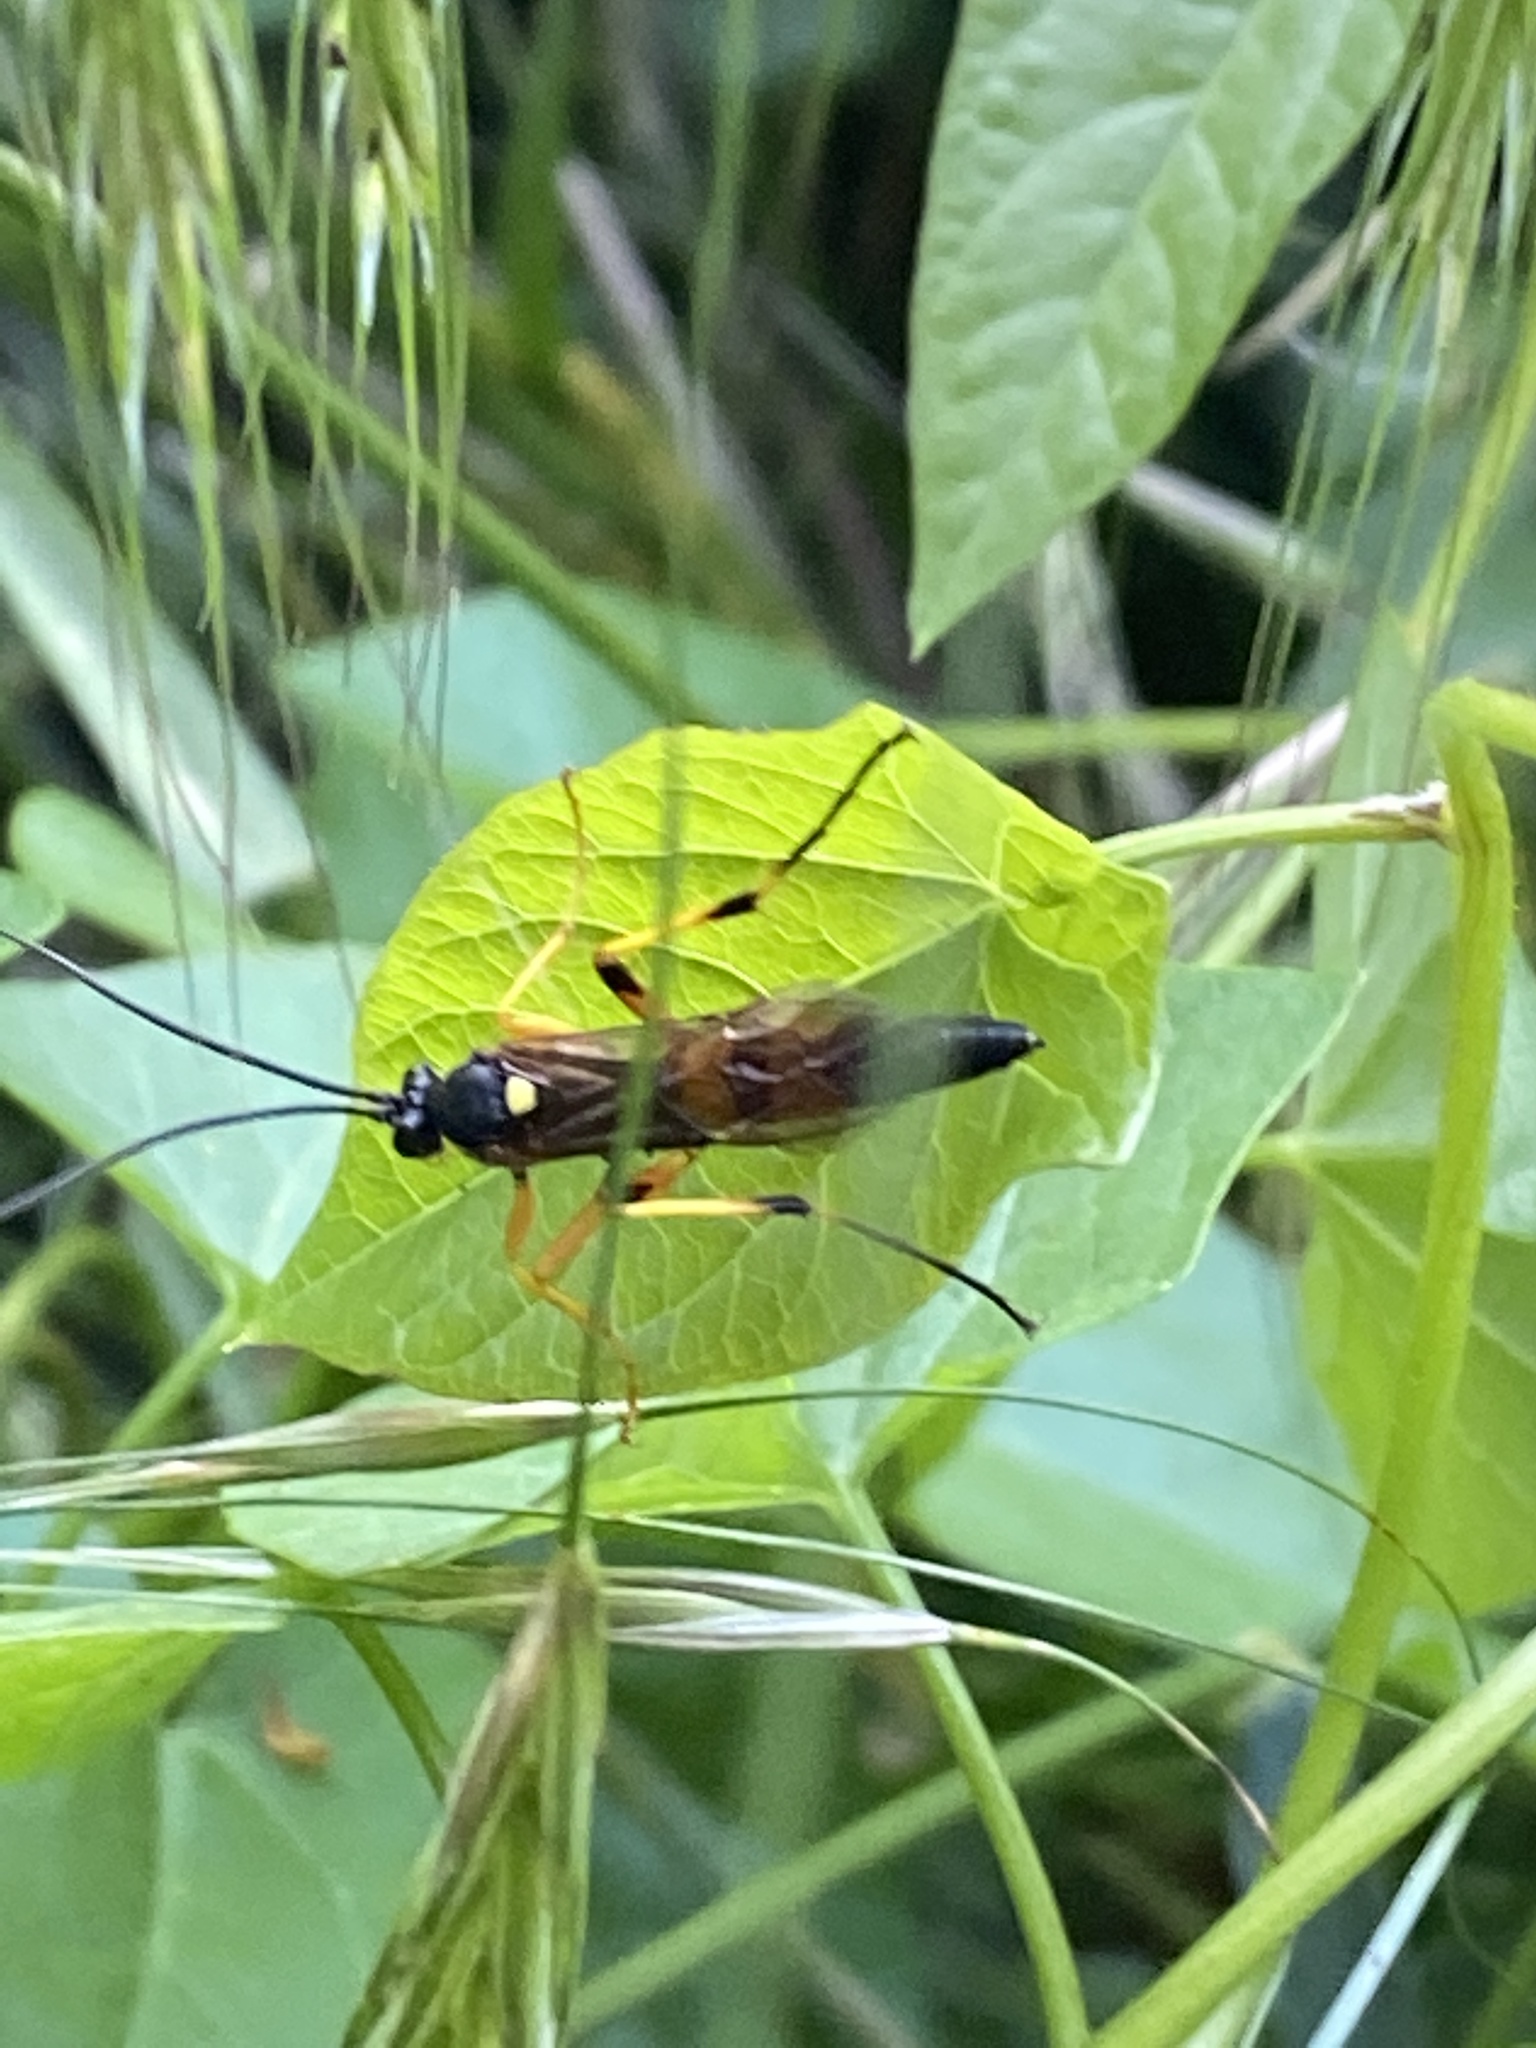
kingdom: Animalia
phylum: Arthropoda
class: Insecta
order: Hymenoptera
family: Ichneumonidae
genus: Diphyus
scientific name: Diphyus quadripunctorius
